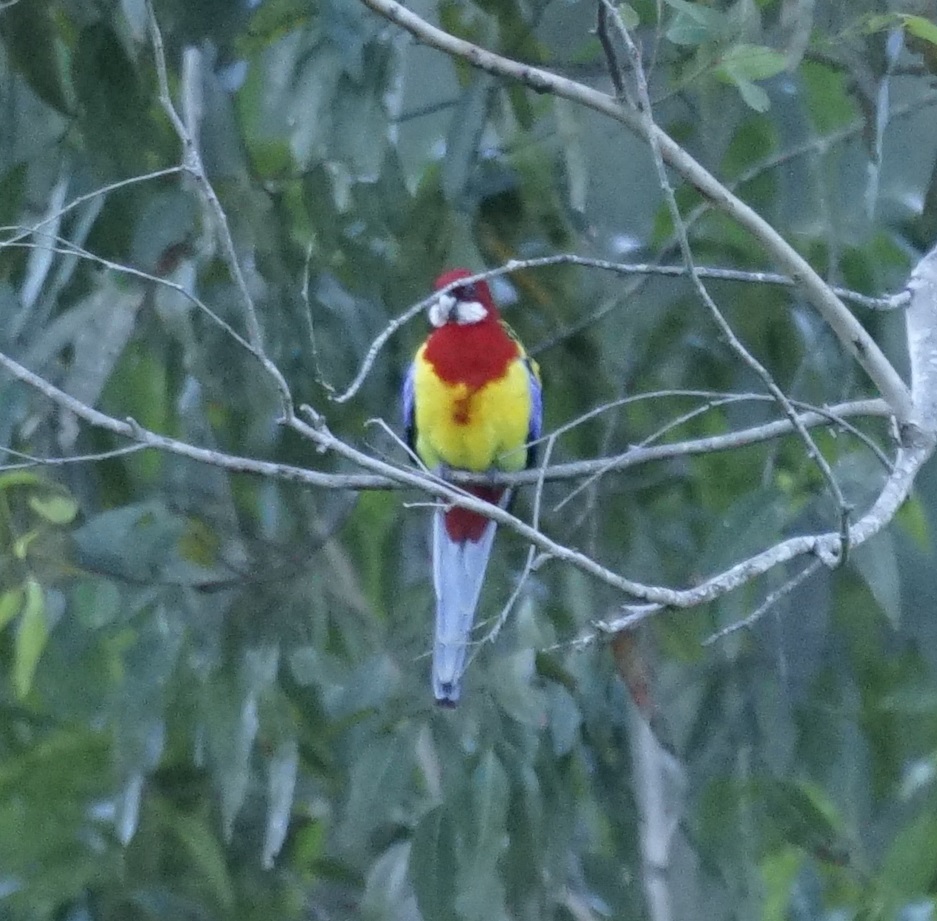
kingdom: Animalia
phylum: Chordata
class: Aves
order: Psittaciformes
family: Psittacidae
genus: Platycercus
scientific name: Platycercus eximius
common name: Eastern rosella
